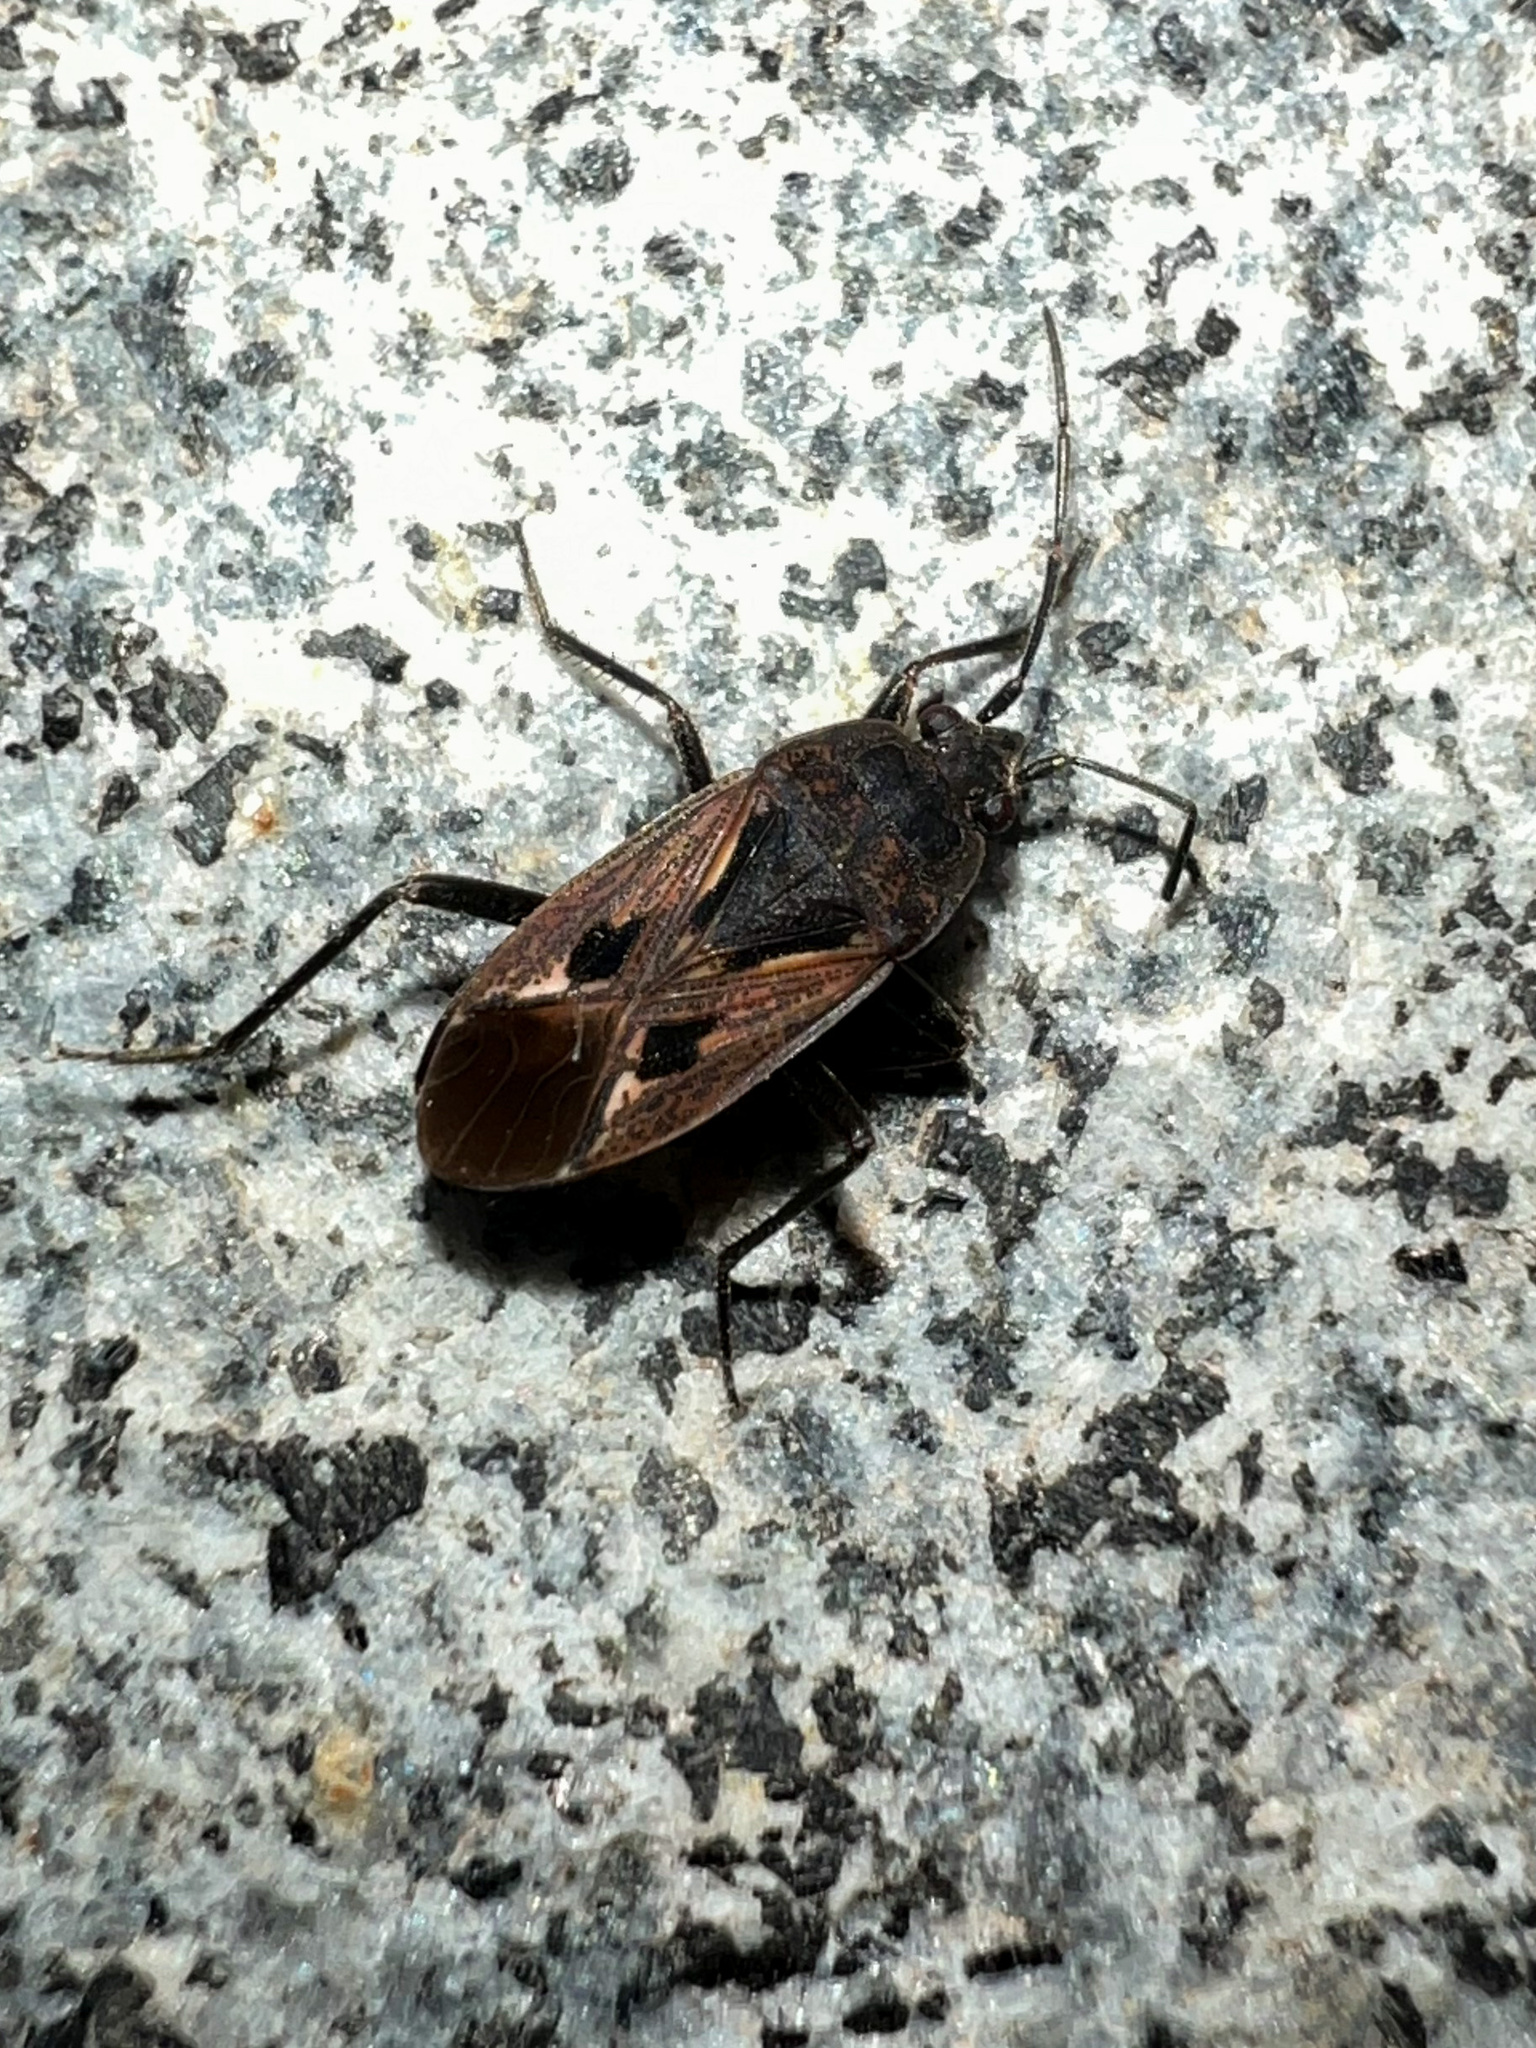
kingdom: Animalia
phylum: Arthropoda
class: Insecta
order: Hemiptera
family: Rhyparochromidae
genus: Rhyparochromus
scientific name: Rhyparochromus pini
